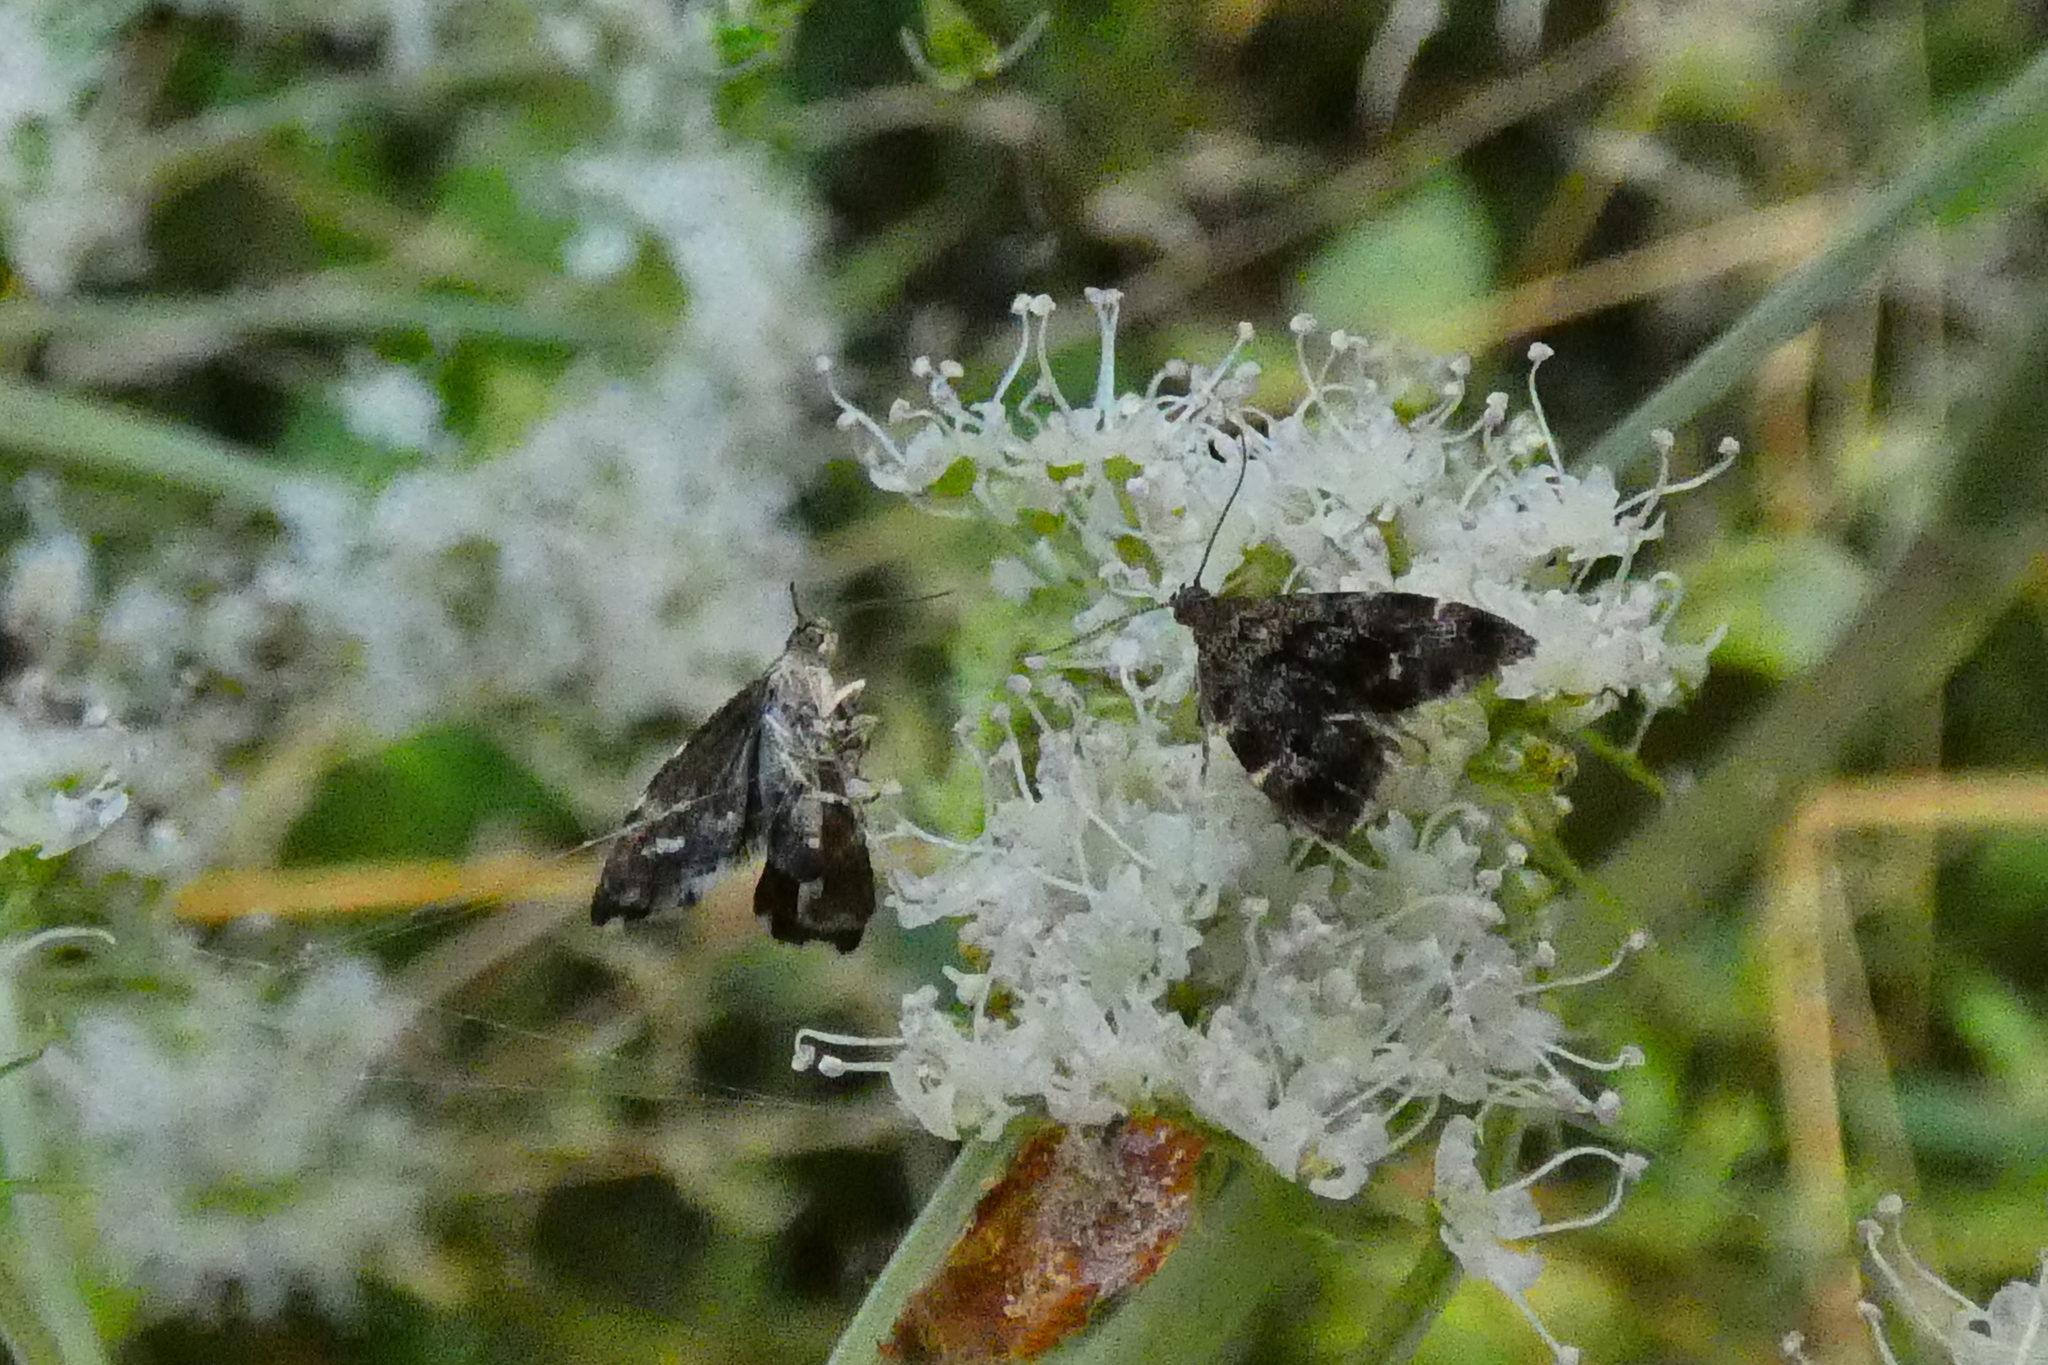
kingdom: Animalia
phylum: Arthropoda
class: Insecta
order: Lepidoptera
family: Choreutidae
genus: Anthophila
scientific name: Anthophila fabriciana
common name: Nettle-tap
